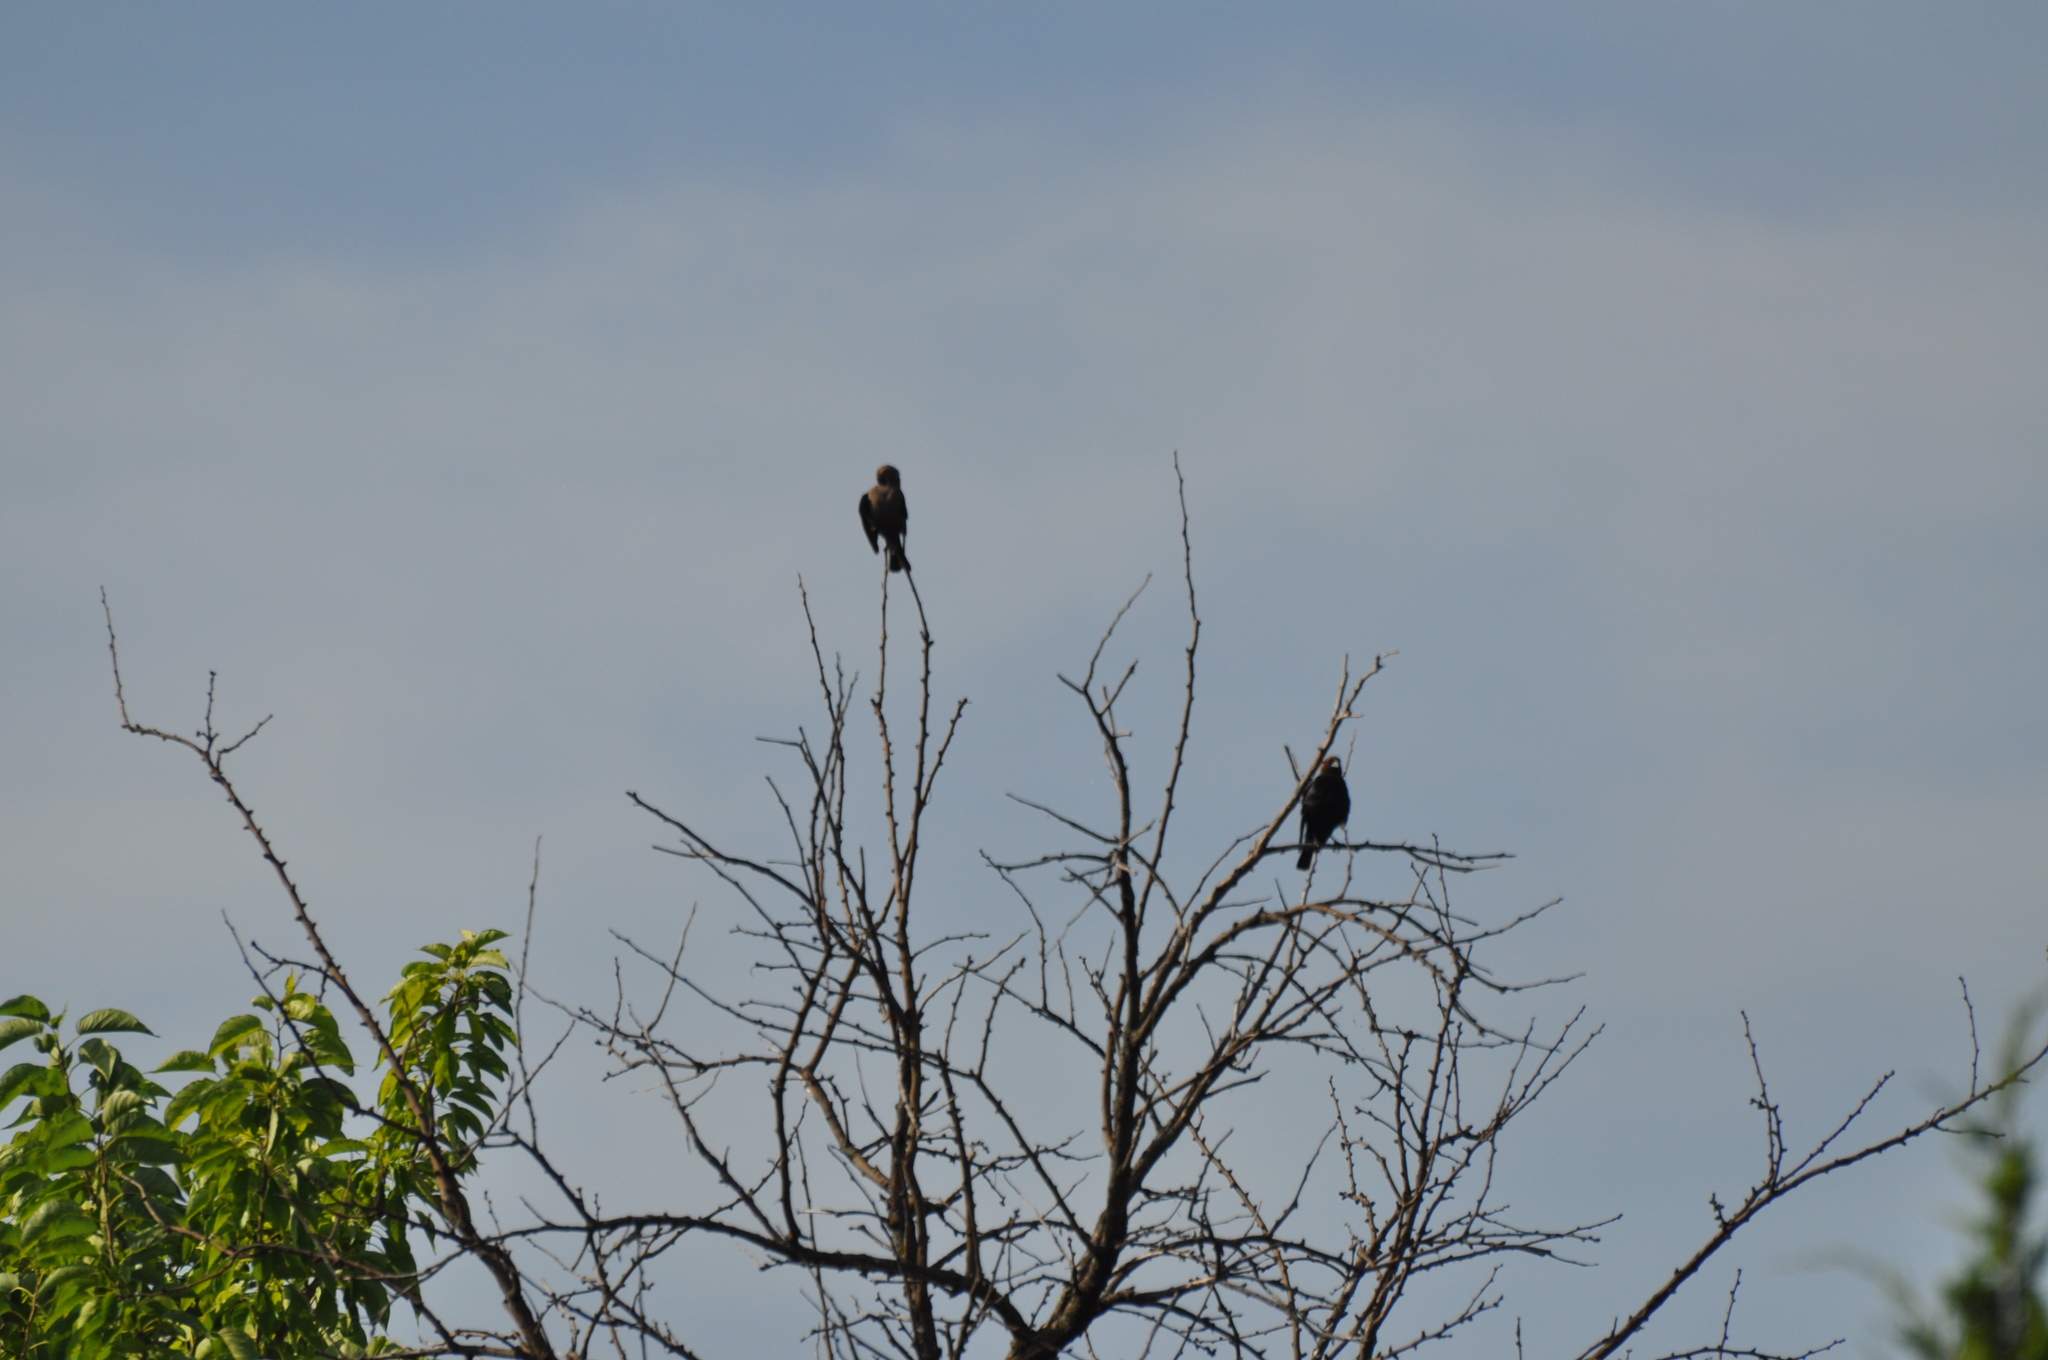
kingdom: Animalia
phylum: Chordata
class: Aves
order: Passeriformes
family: Icteridae
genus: Molothrus
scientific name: Molothrus ater
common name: Brown-headed cowbird
